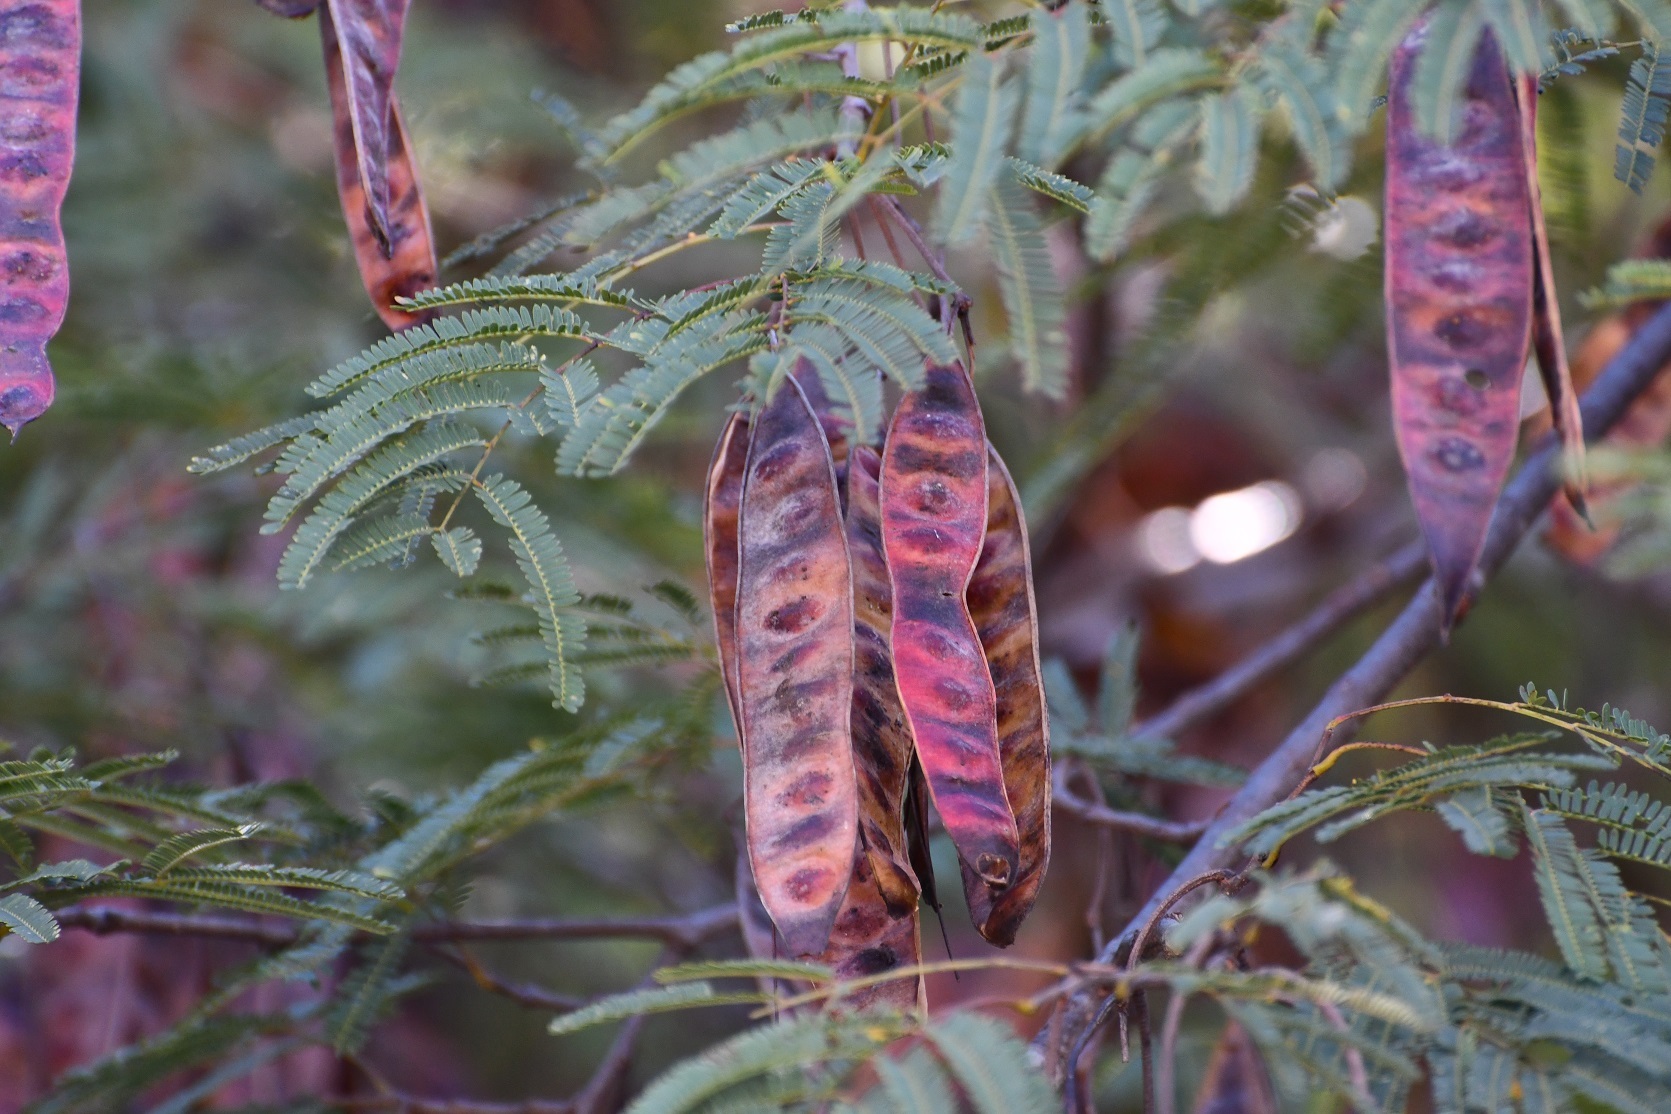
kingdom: Plantae
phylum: Tracheophyta
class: Magnoliopsida
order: Fabales
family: Fabaceae
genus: Leucaena
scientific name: Leucaena esculenta
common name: Guaje
